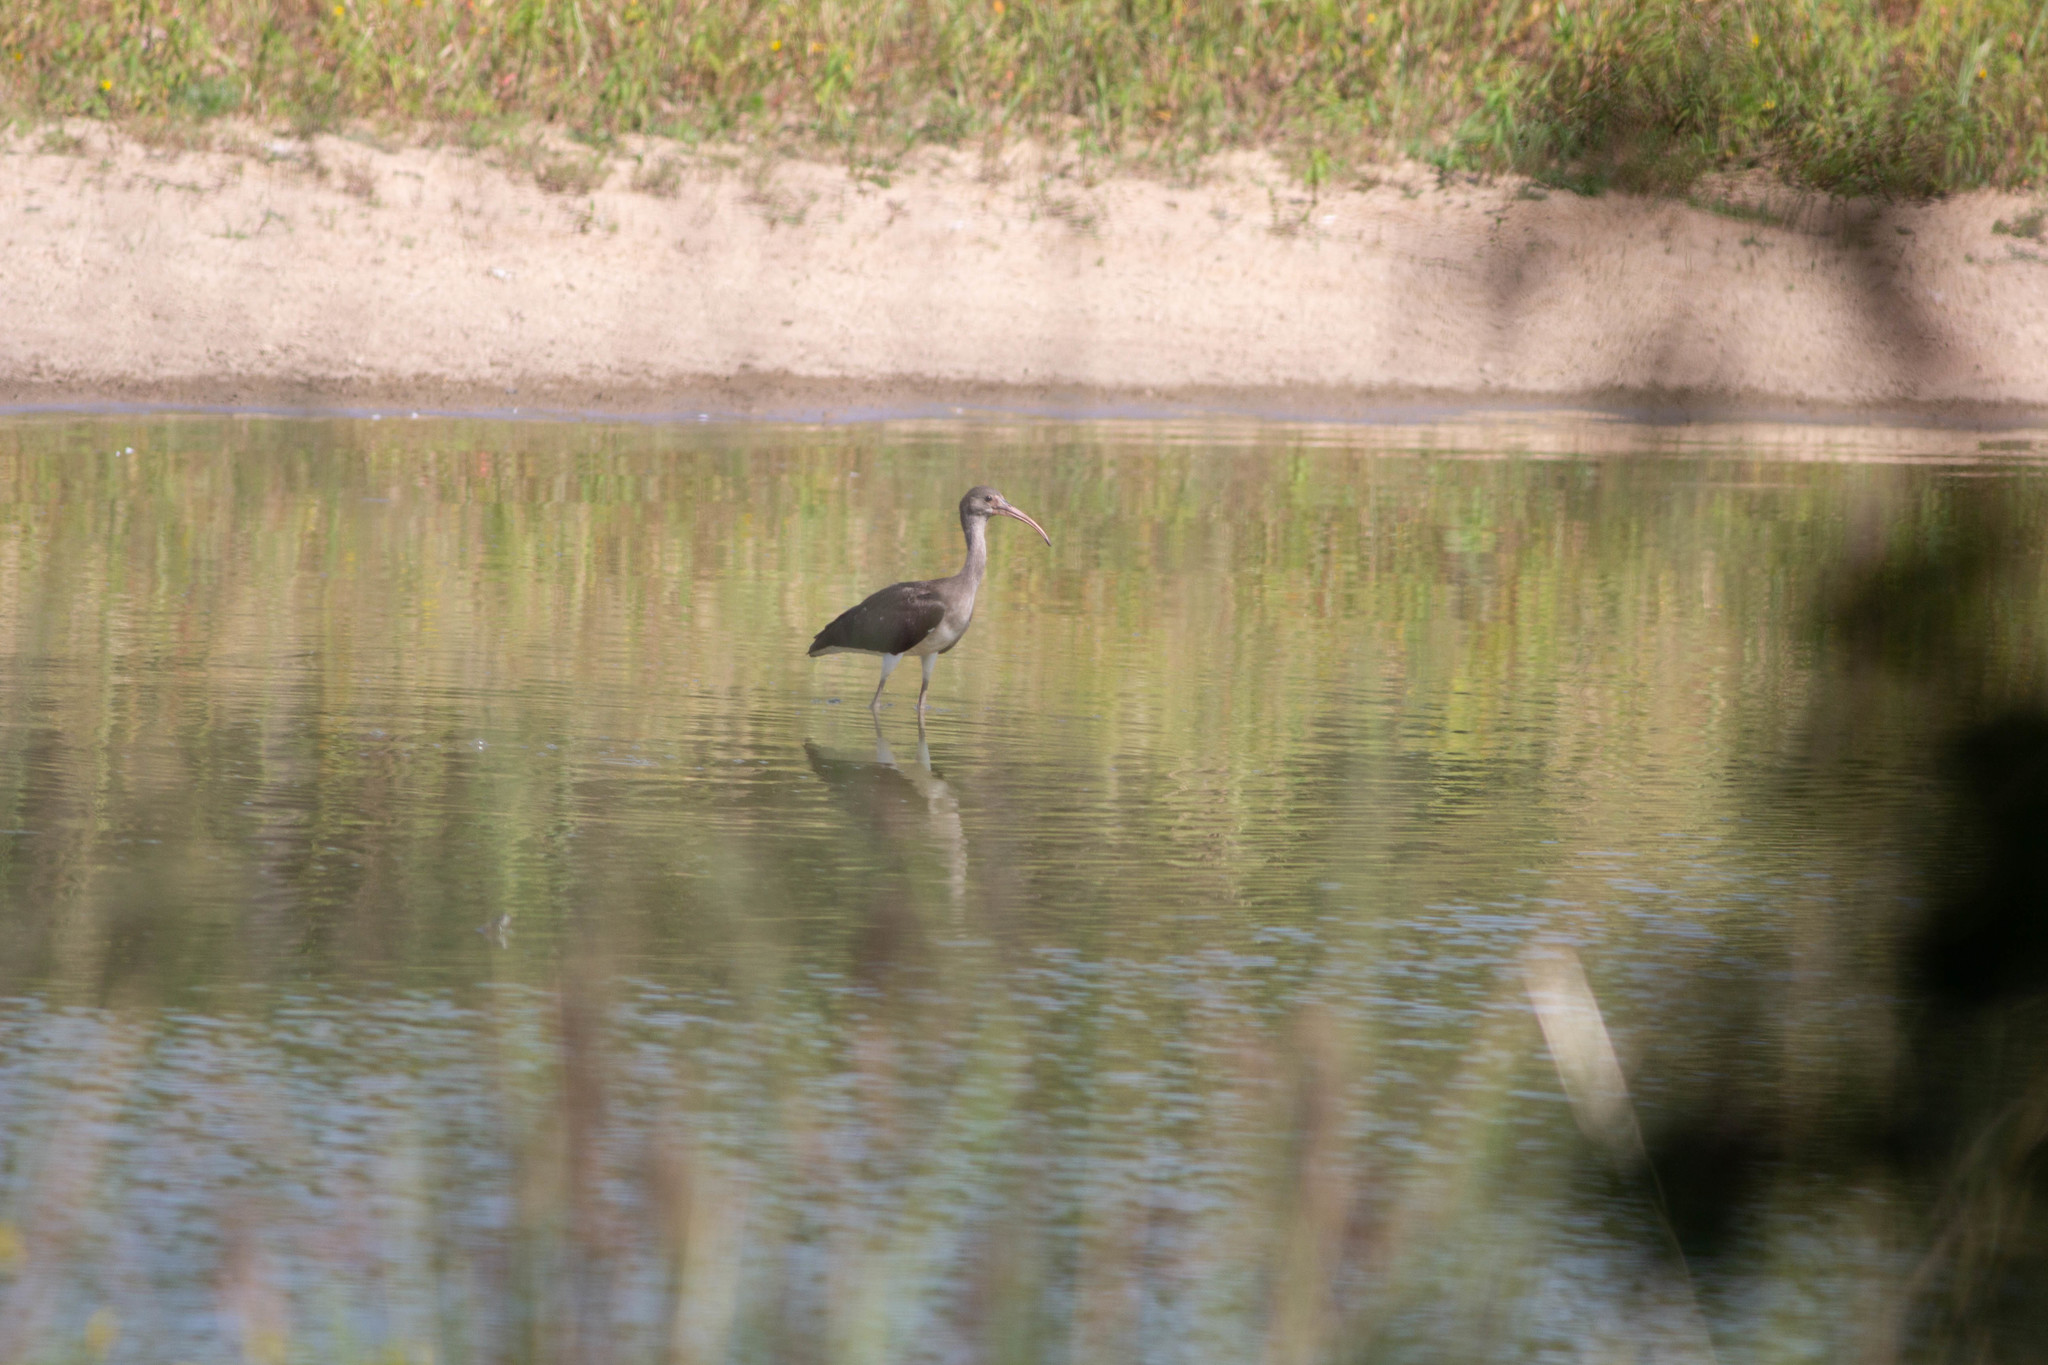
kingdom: Animalia
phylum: Chordata
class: Aves
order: Pelecaniformes
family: Threskiornithidae
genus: Eudocimus
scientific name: Eudocimus albus
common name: White ibis
